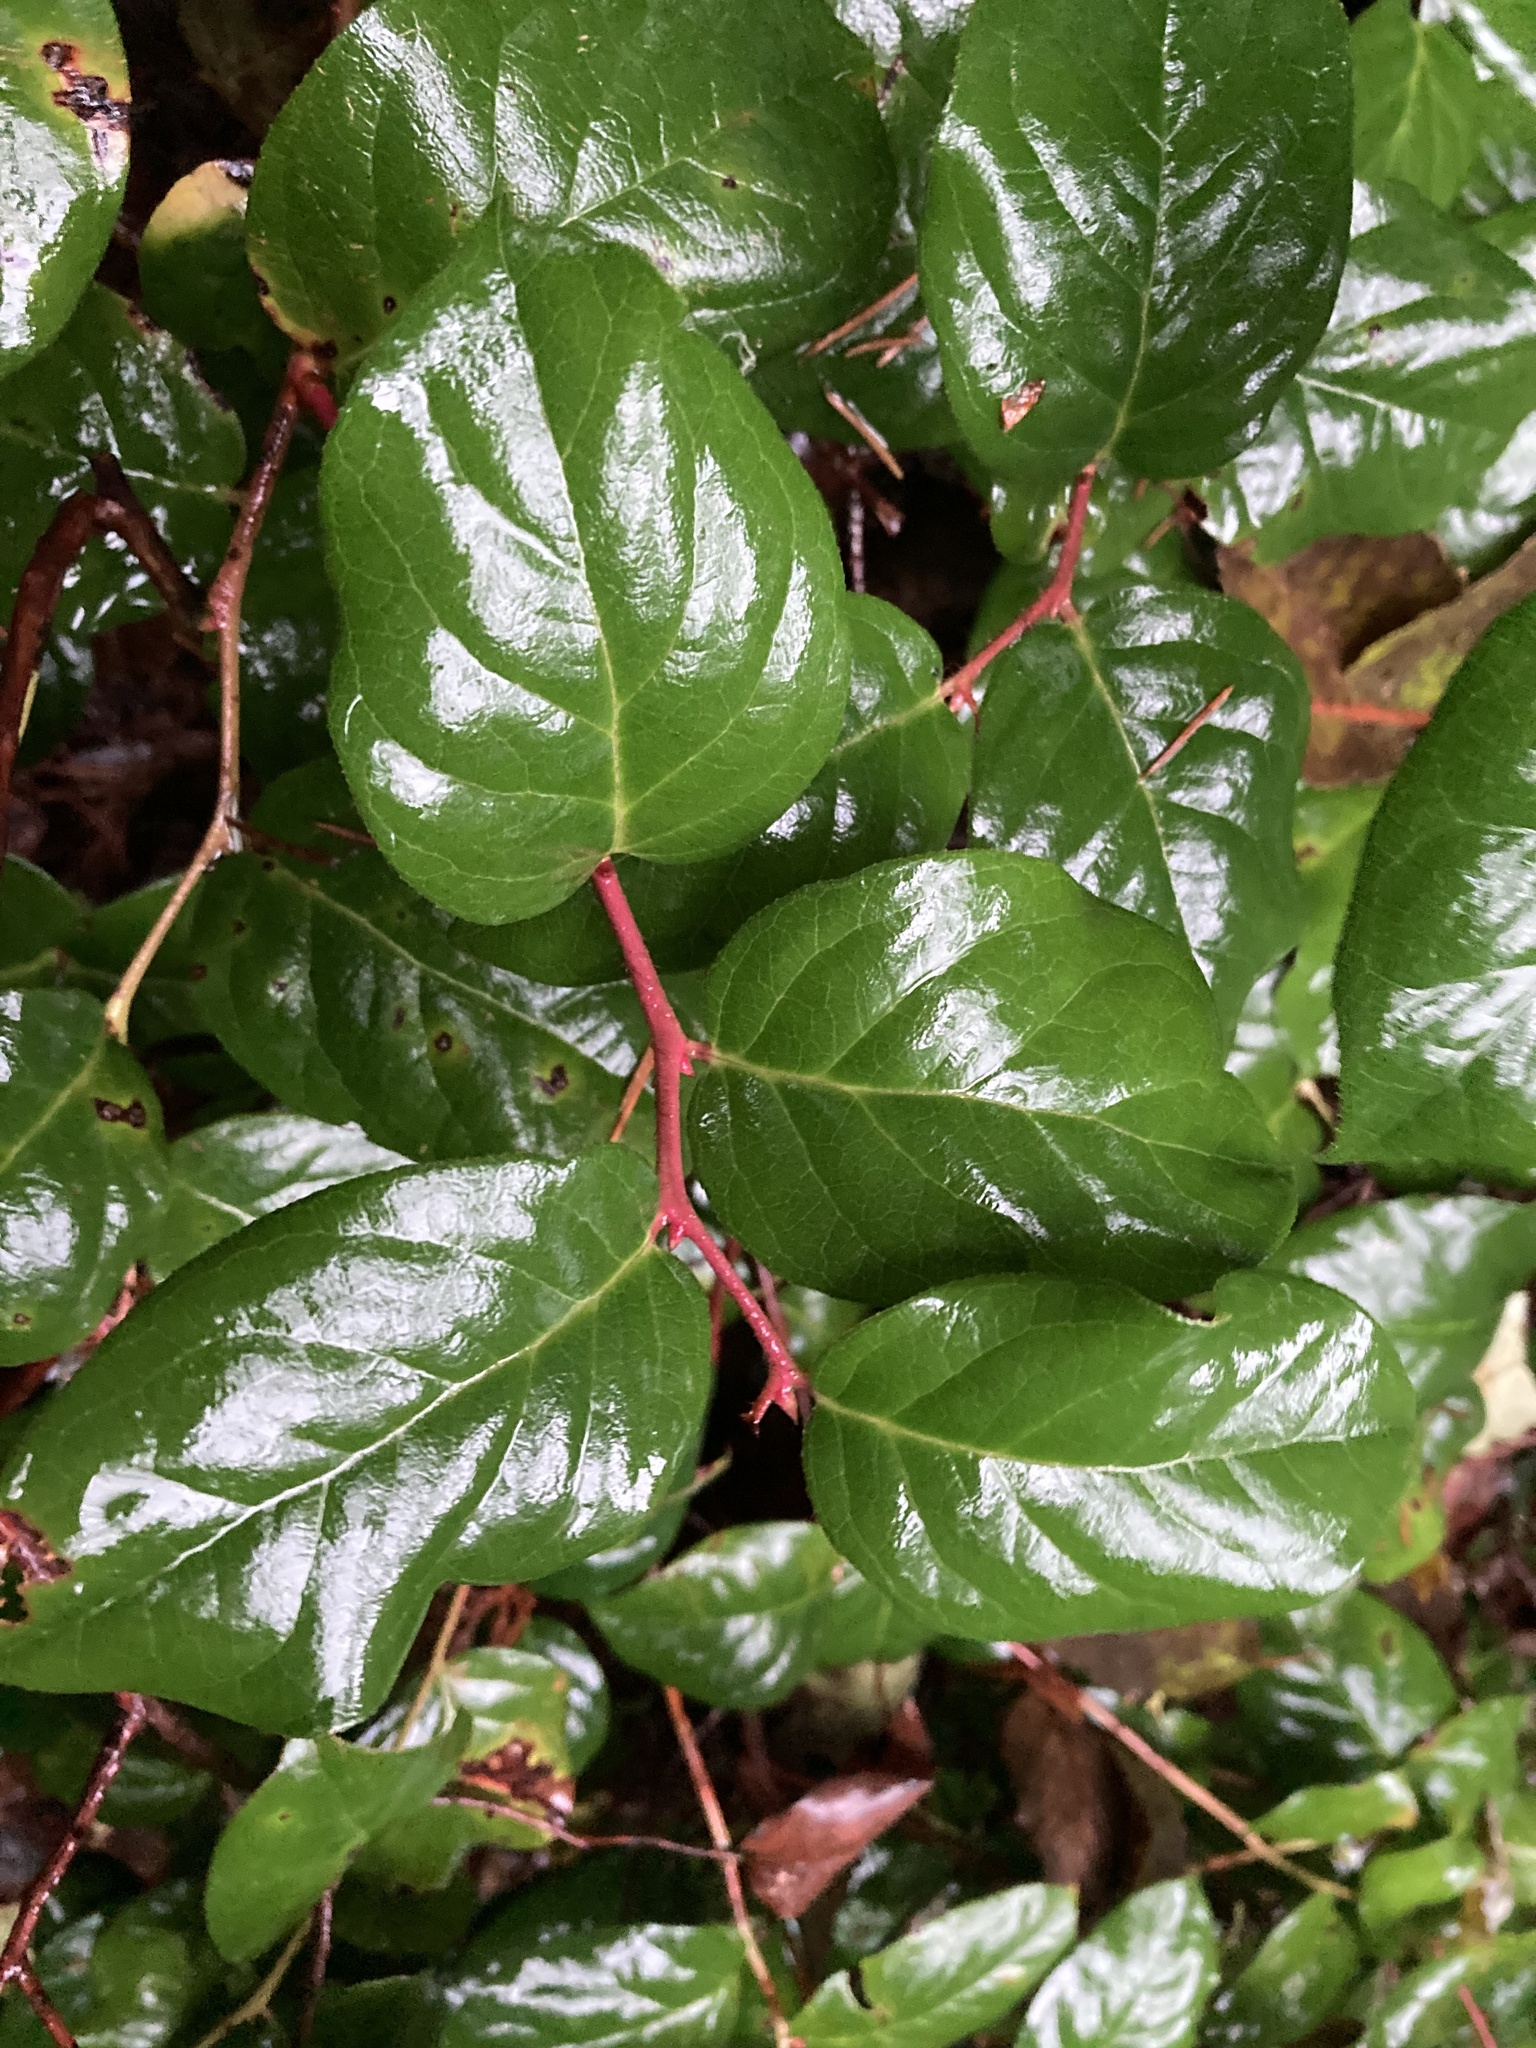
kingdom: Plantae
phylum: Tracheophyta
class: Magnoliopsida
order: Ericales
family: Ericaceae
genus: Gaultheria
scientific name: Gaultheria shallon
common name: Shallon
